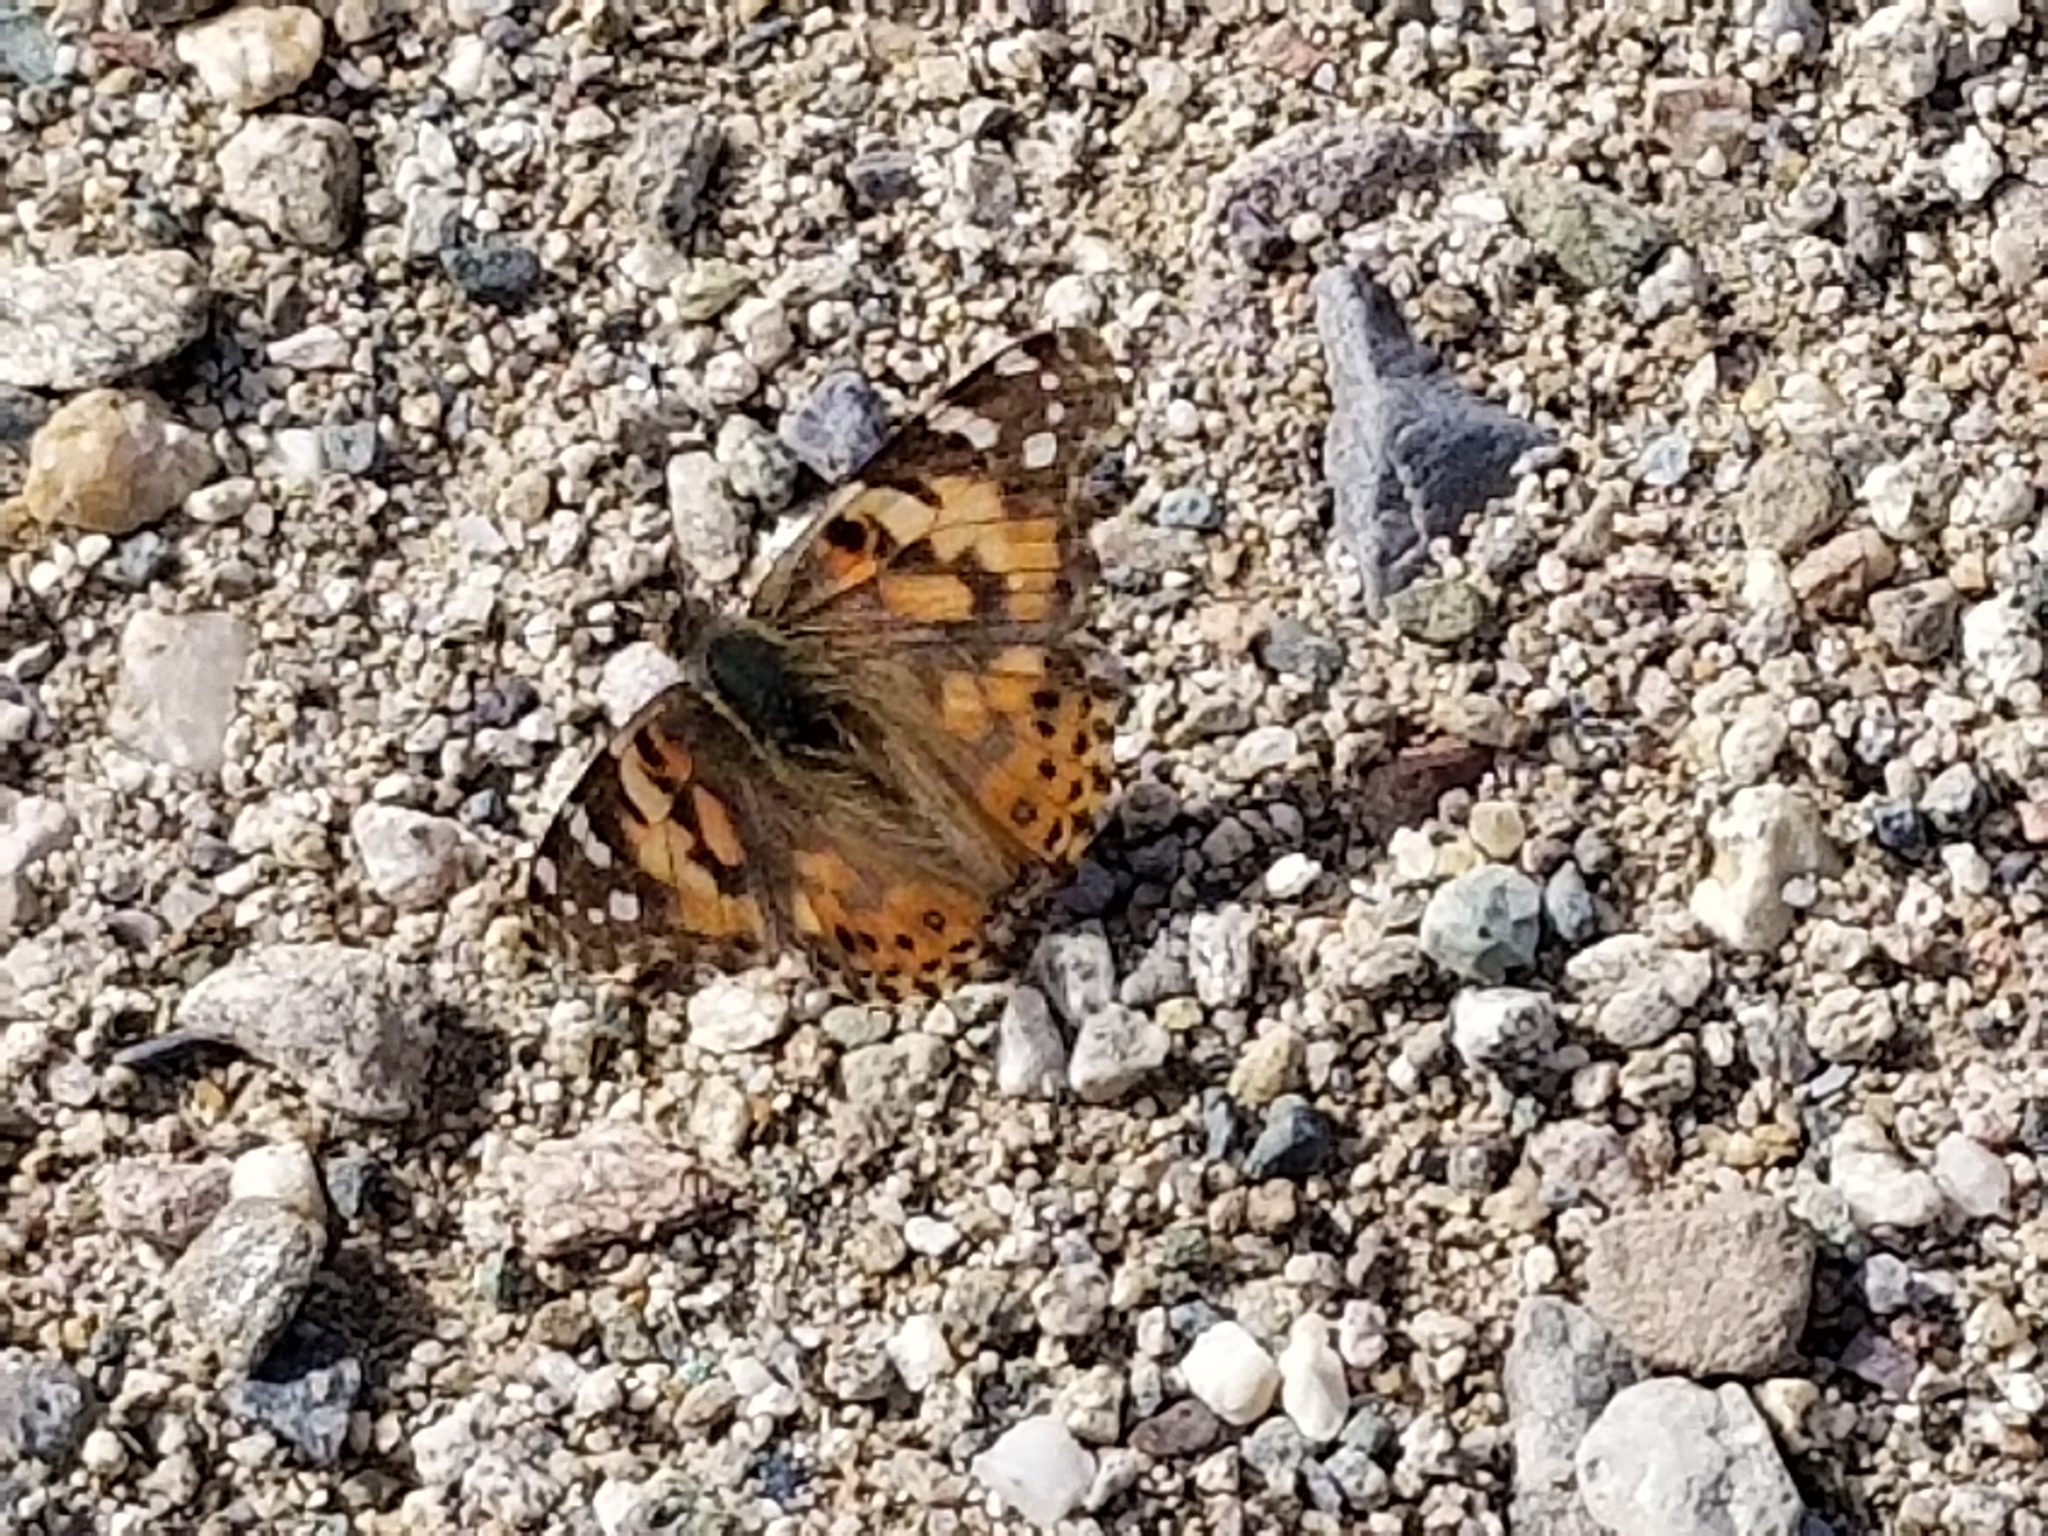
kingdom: Animalia
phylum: Arthropoda
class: Insecta
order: Lepidoptera
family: Nymphalidae
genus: Vanessa
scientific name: Vanessa cardui
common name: Painted lady
